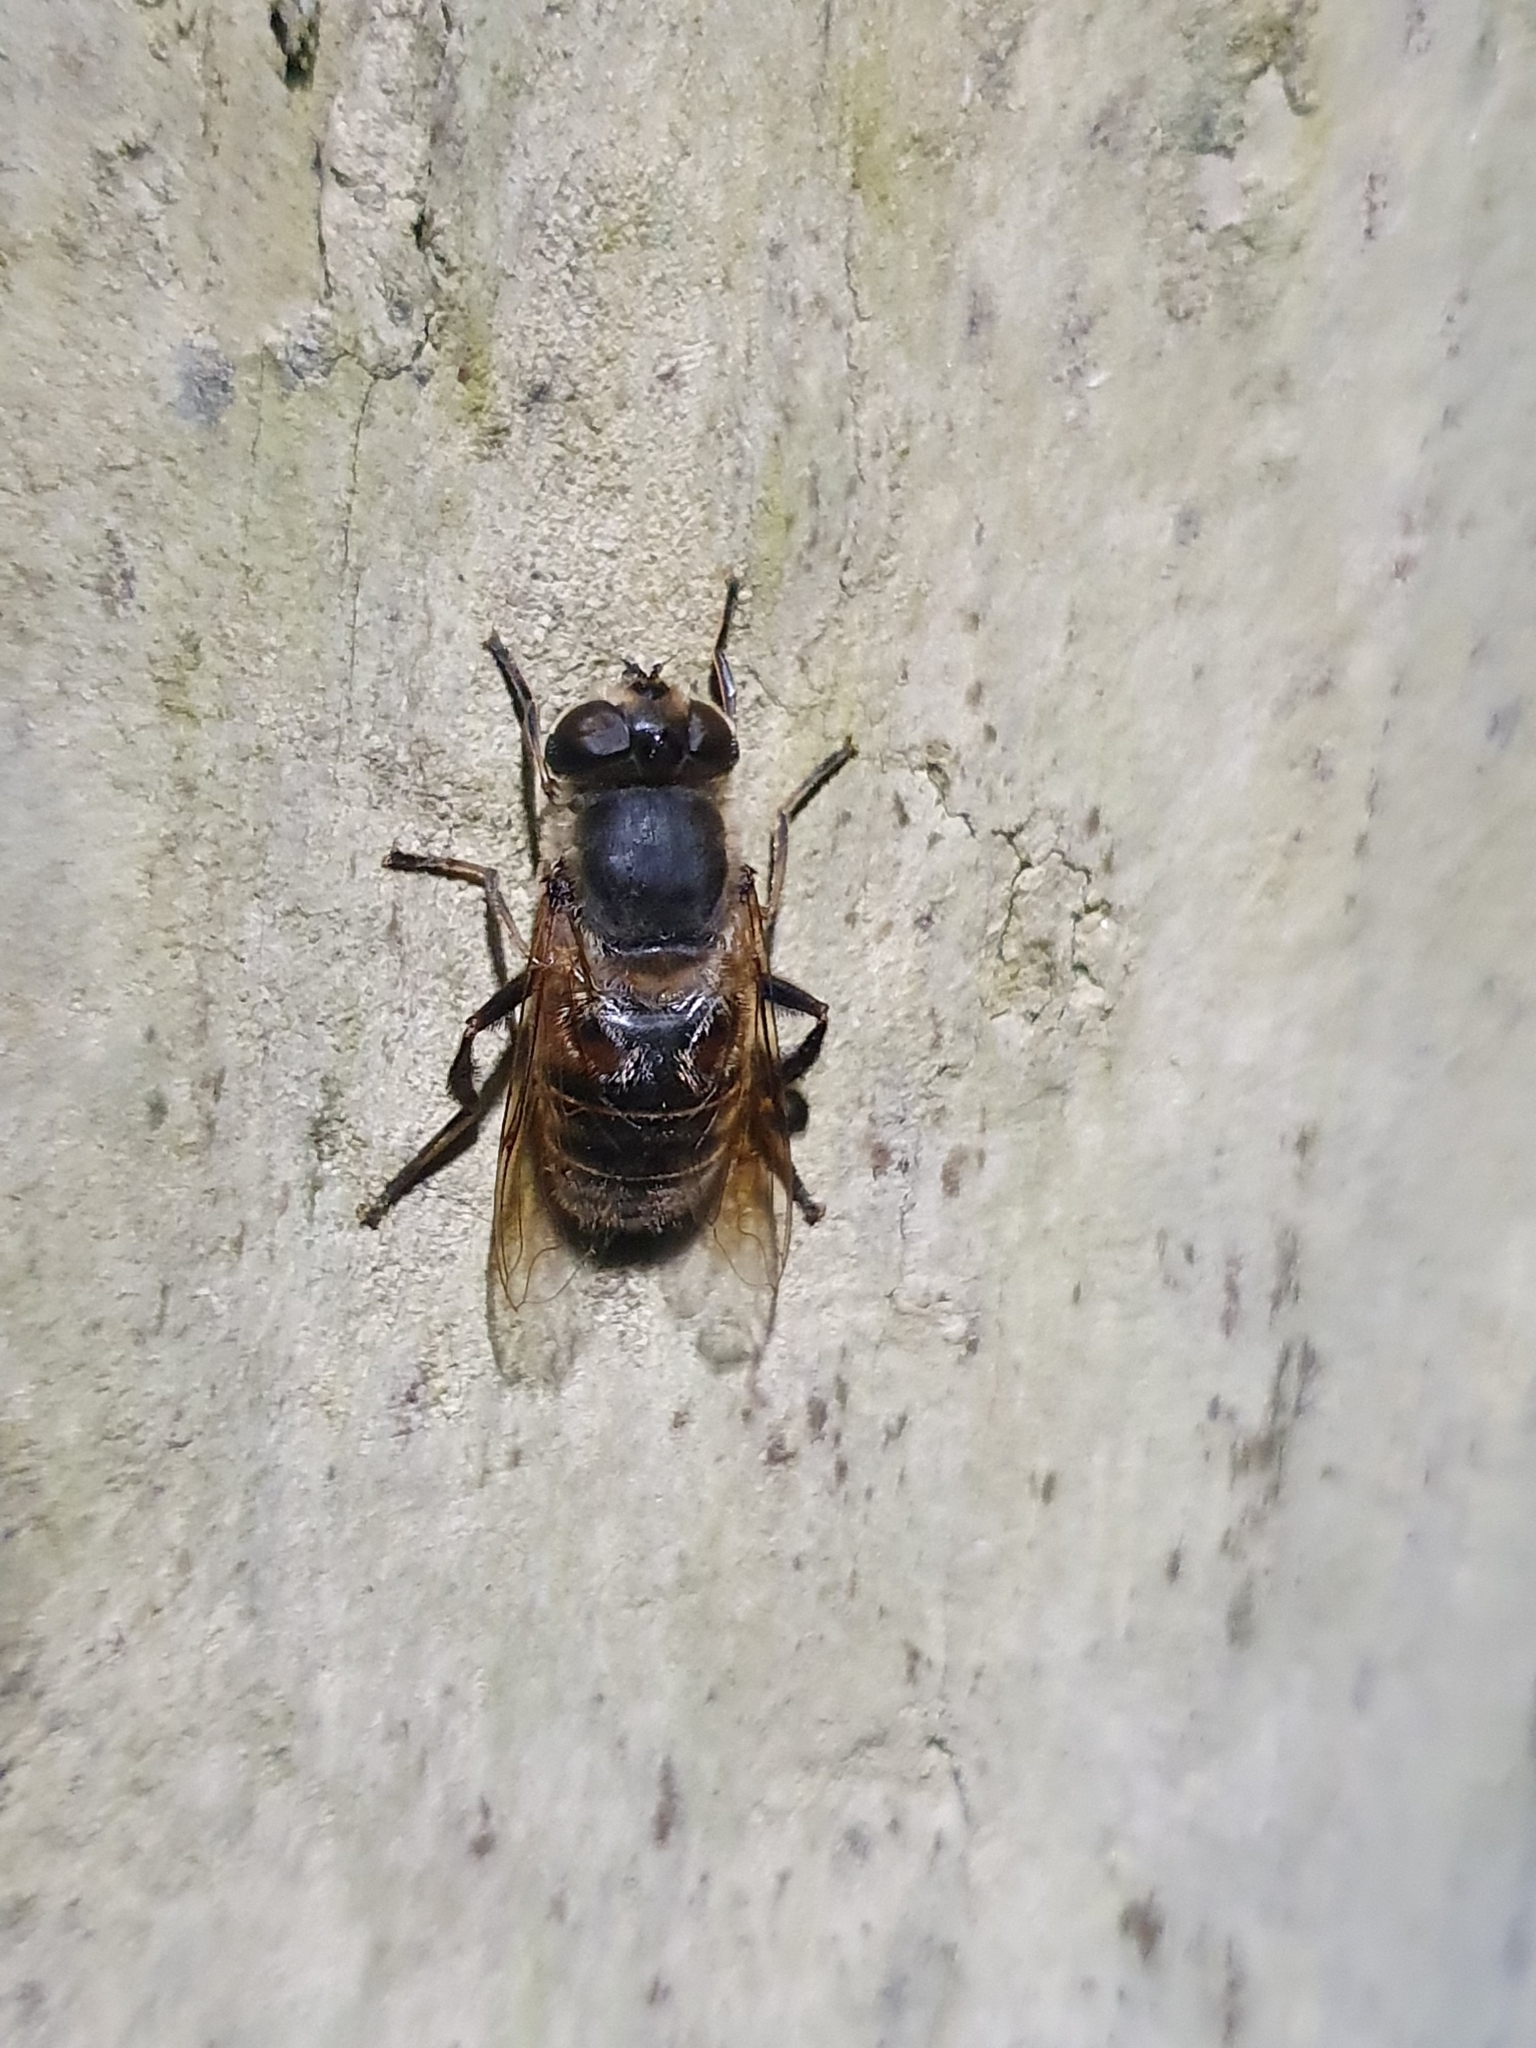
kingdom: Animalia
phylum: Arthropoda
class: Insecta
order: Diptera
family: Syrphidae
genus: Eristalis
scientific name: Eristalis tenax
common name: Drone fly
